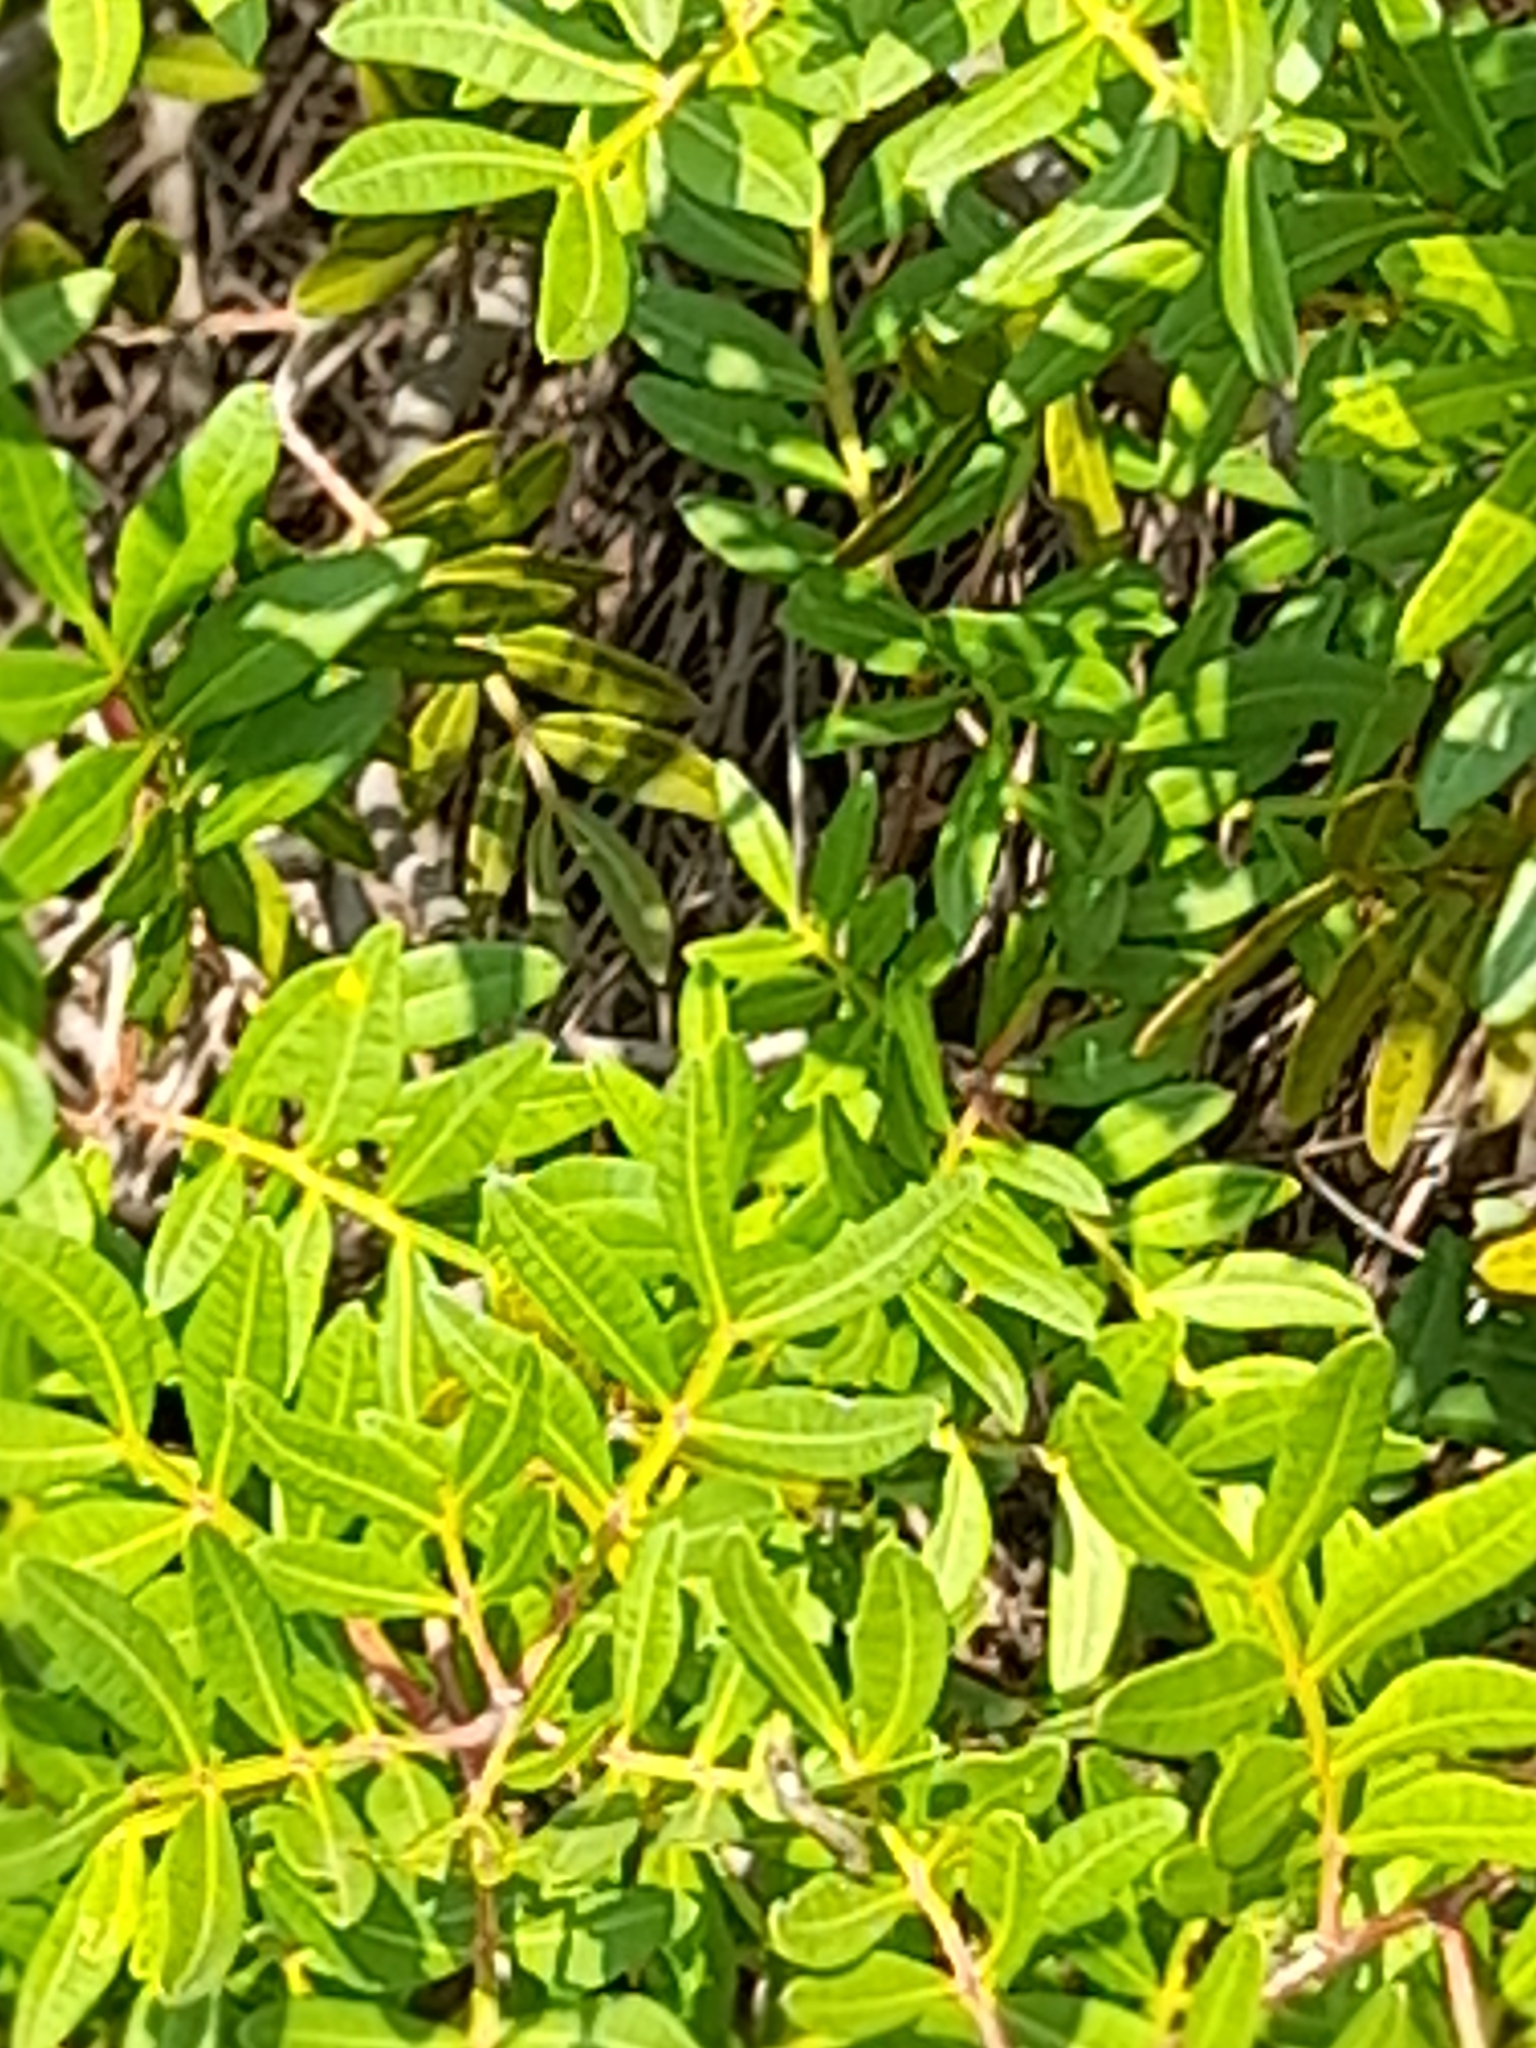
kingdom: Plantae
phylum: Tracheophyta
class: Magnoliopsida
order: Sapindales
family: Anacardiaceae
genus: Pistacia
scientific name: Pistacia lentiscus
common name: Lentisk
